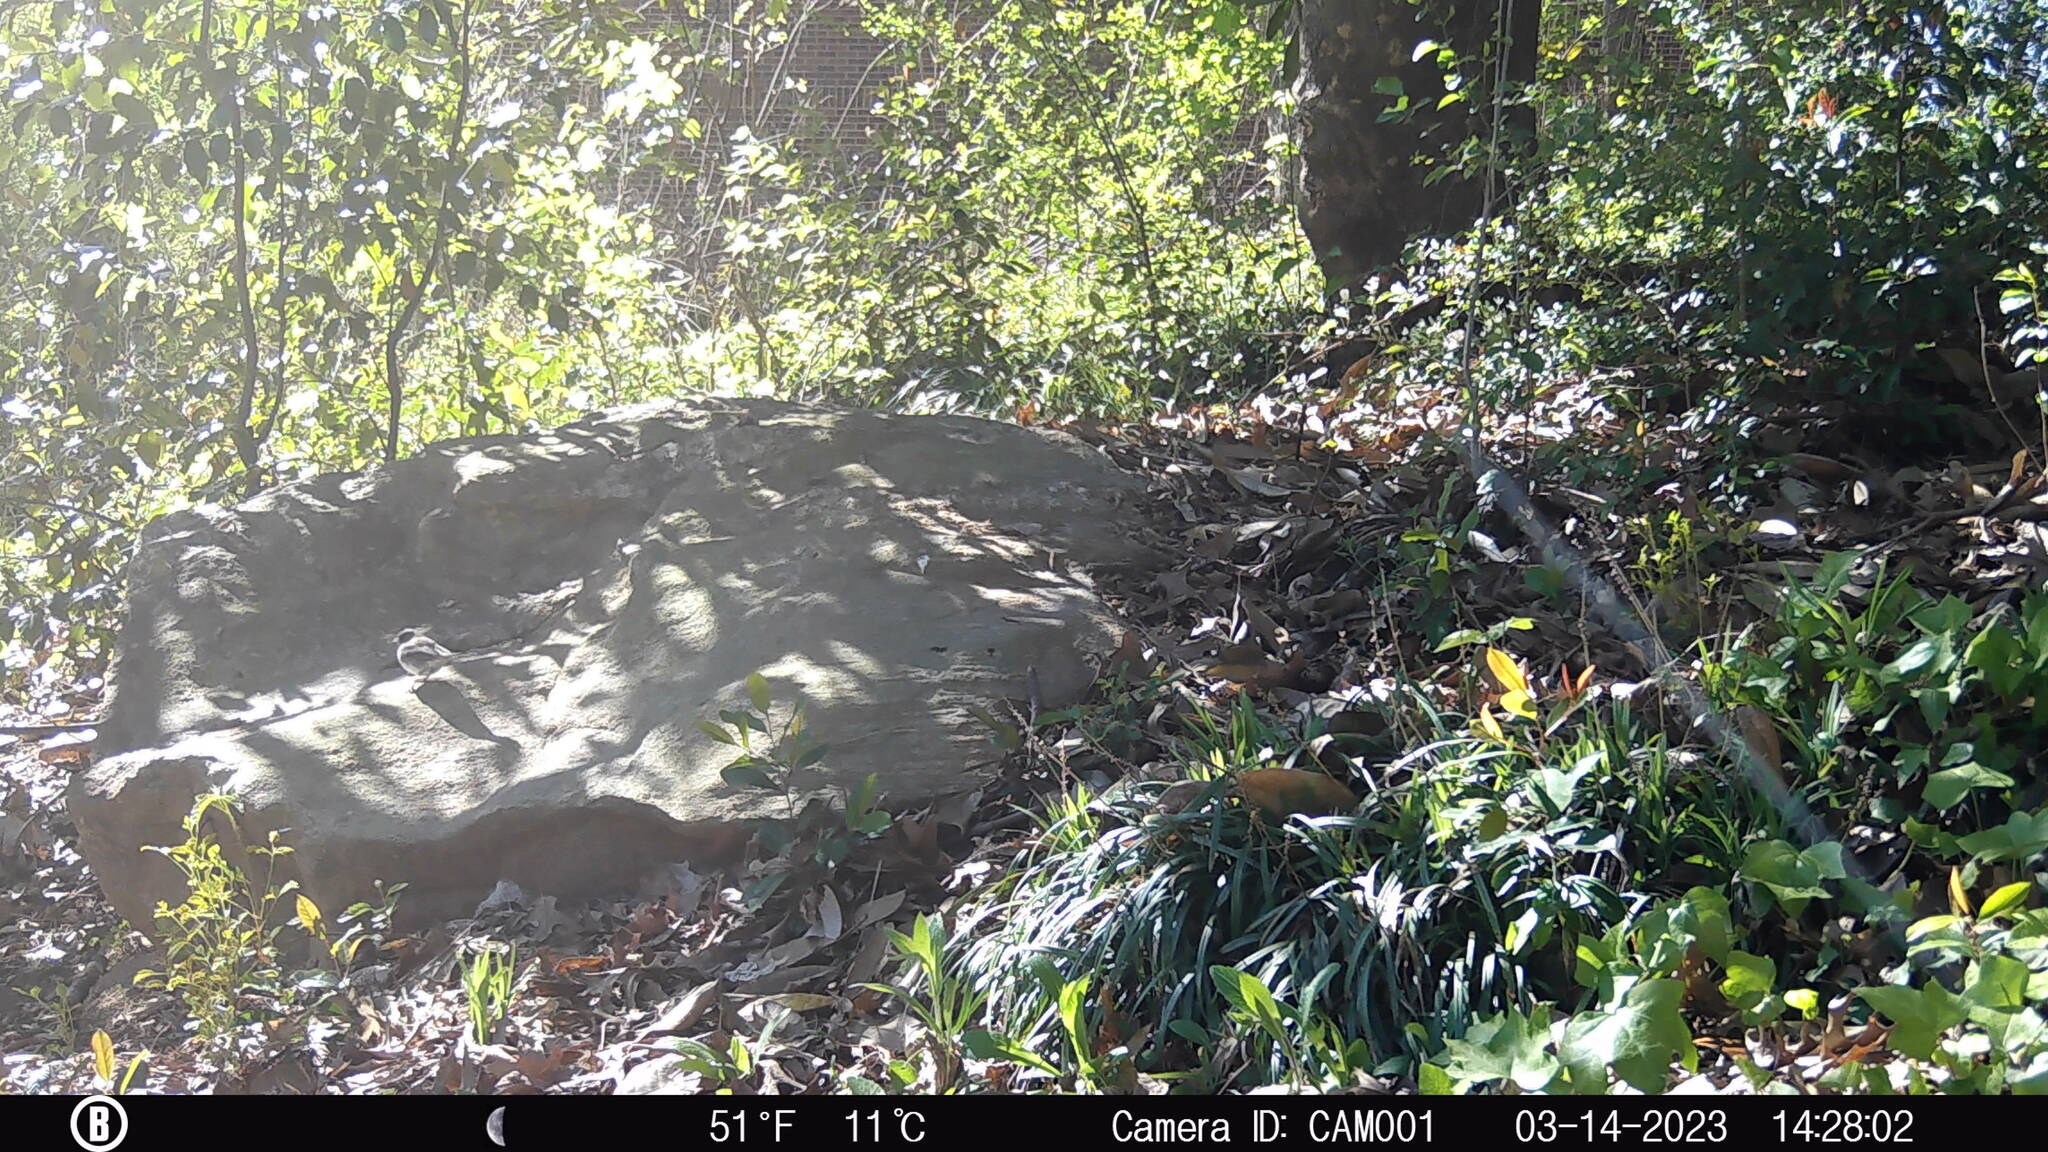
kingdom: Animalia
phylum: Chordata
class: Aves
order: Passeriformes
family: Passerellidae
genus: Junco
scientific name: Junco hyemalis
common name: Dark-eyed junco
